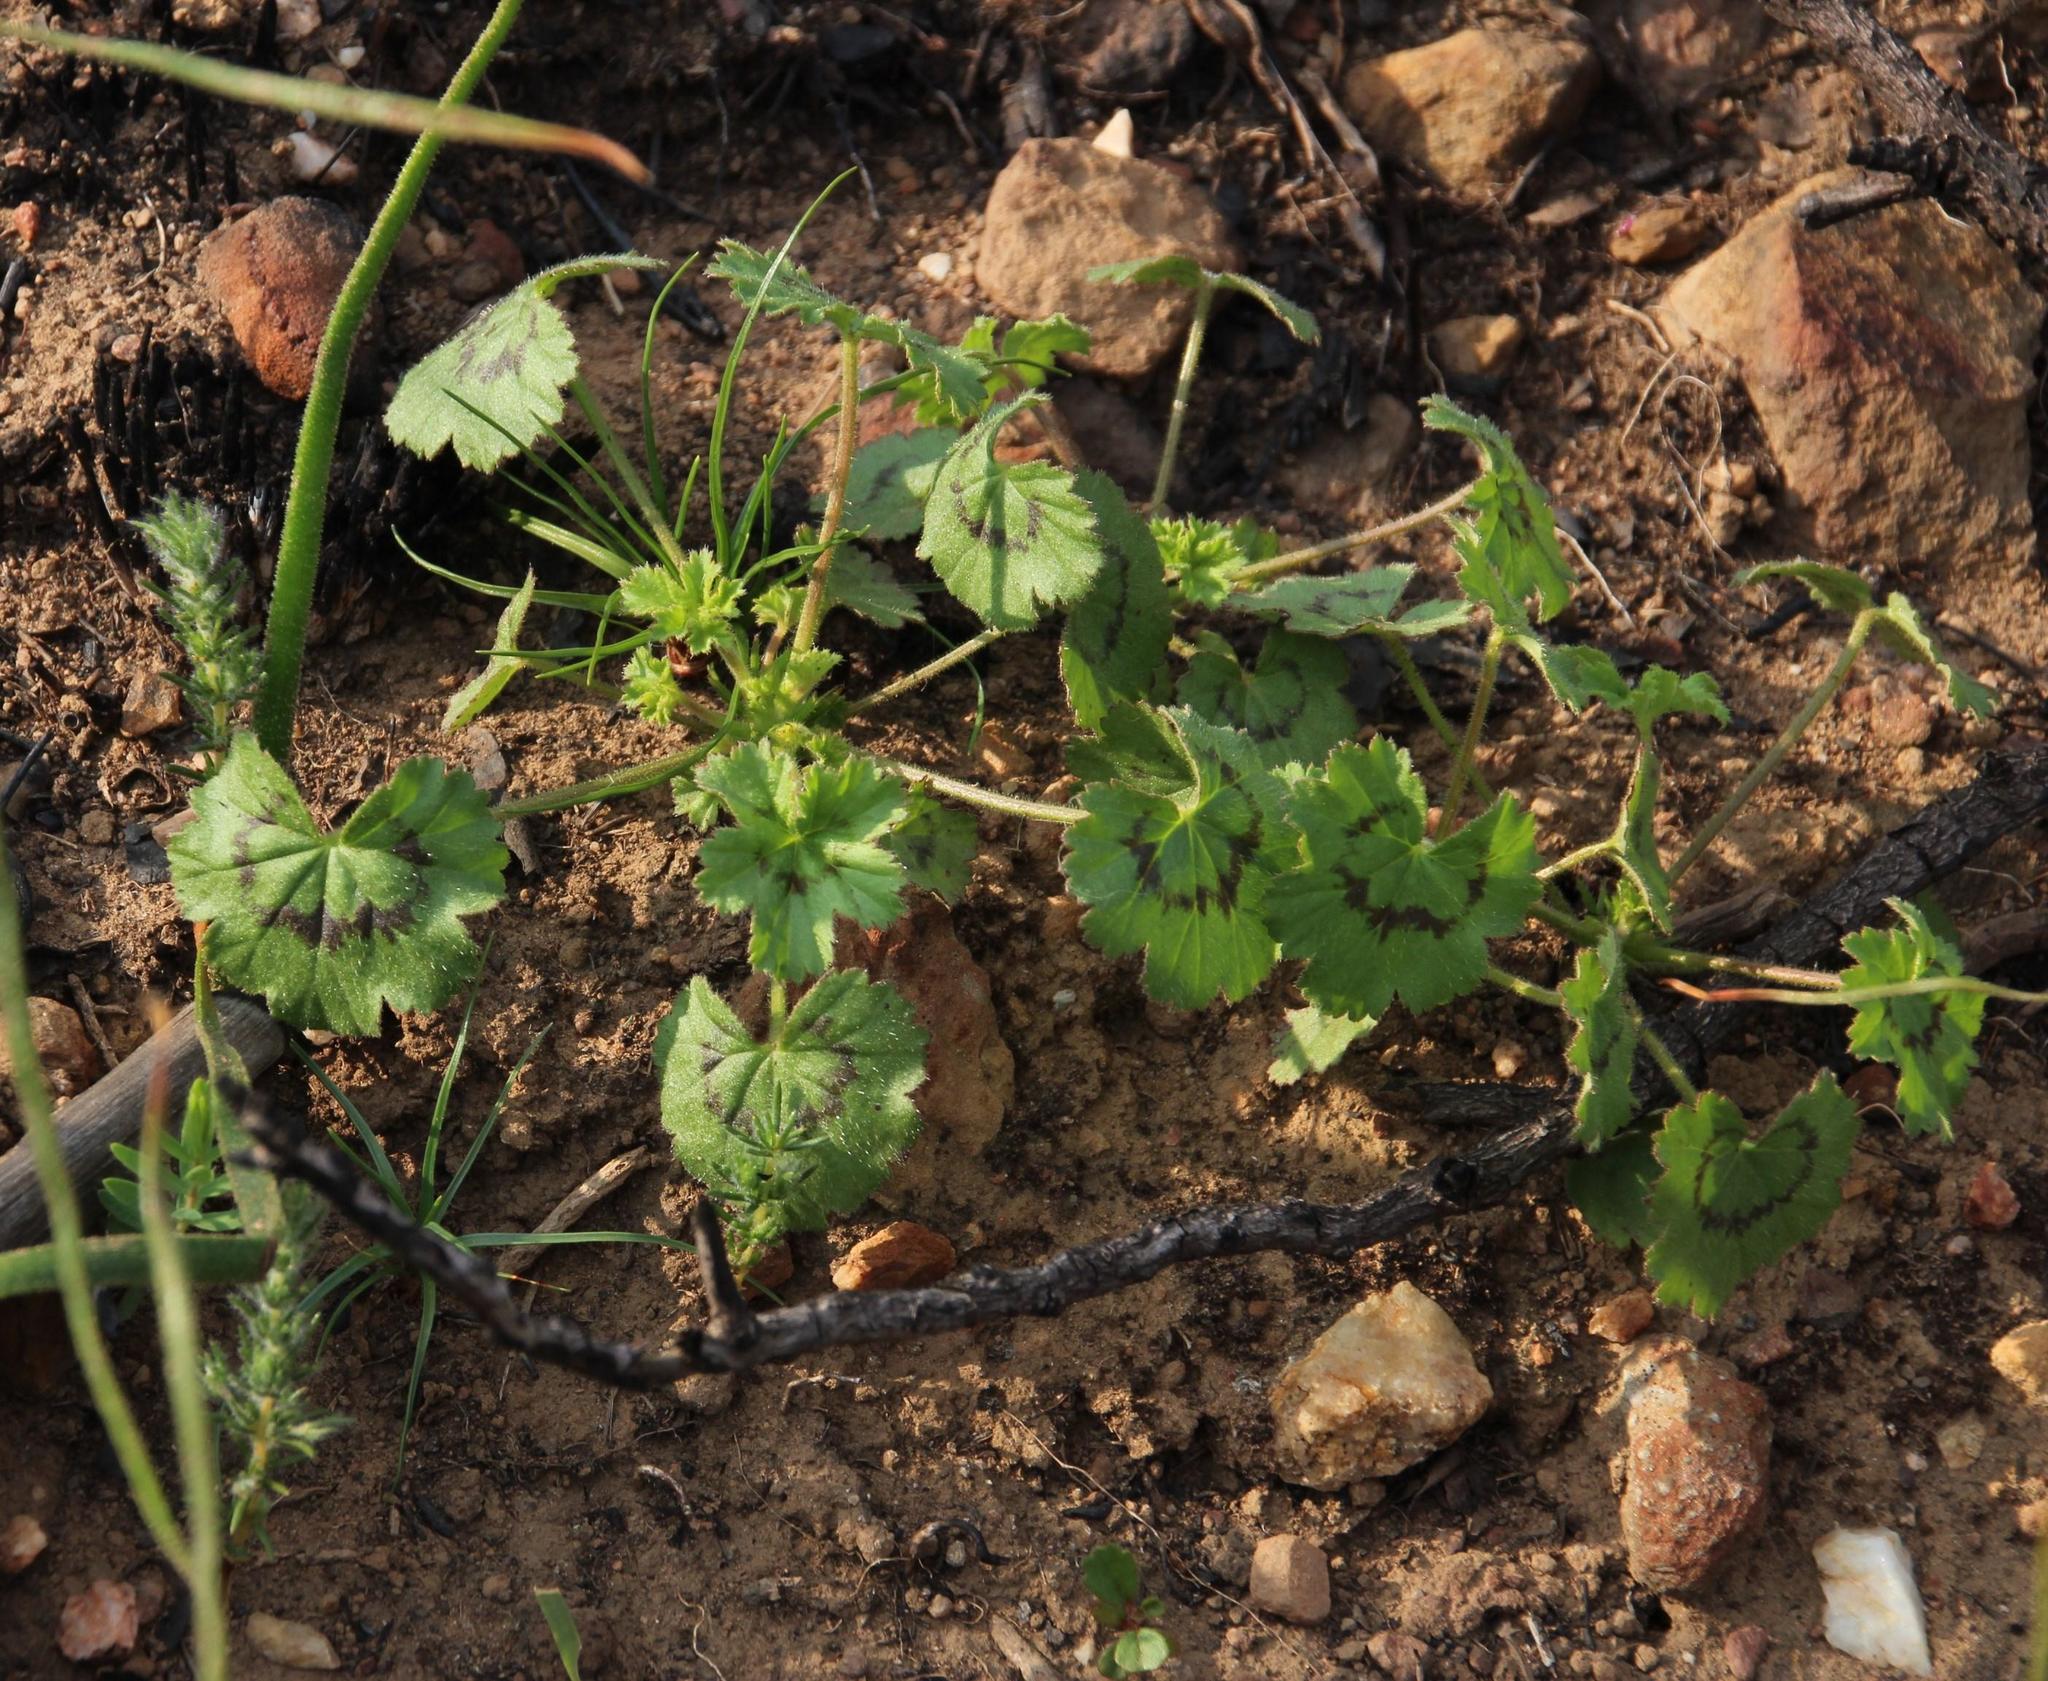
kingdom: Plantae
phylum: Tracheophyta
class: Magnoliopsida
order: Geraniales
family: Geraniaceae
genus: Pelargonium
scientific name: Pelargonium elongatum
